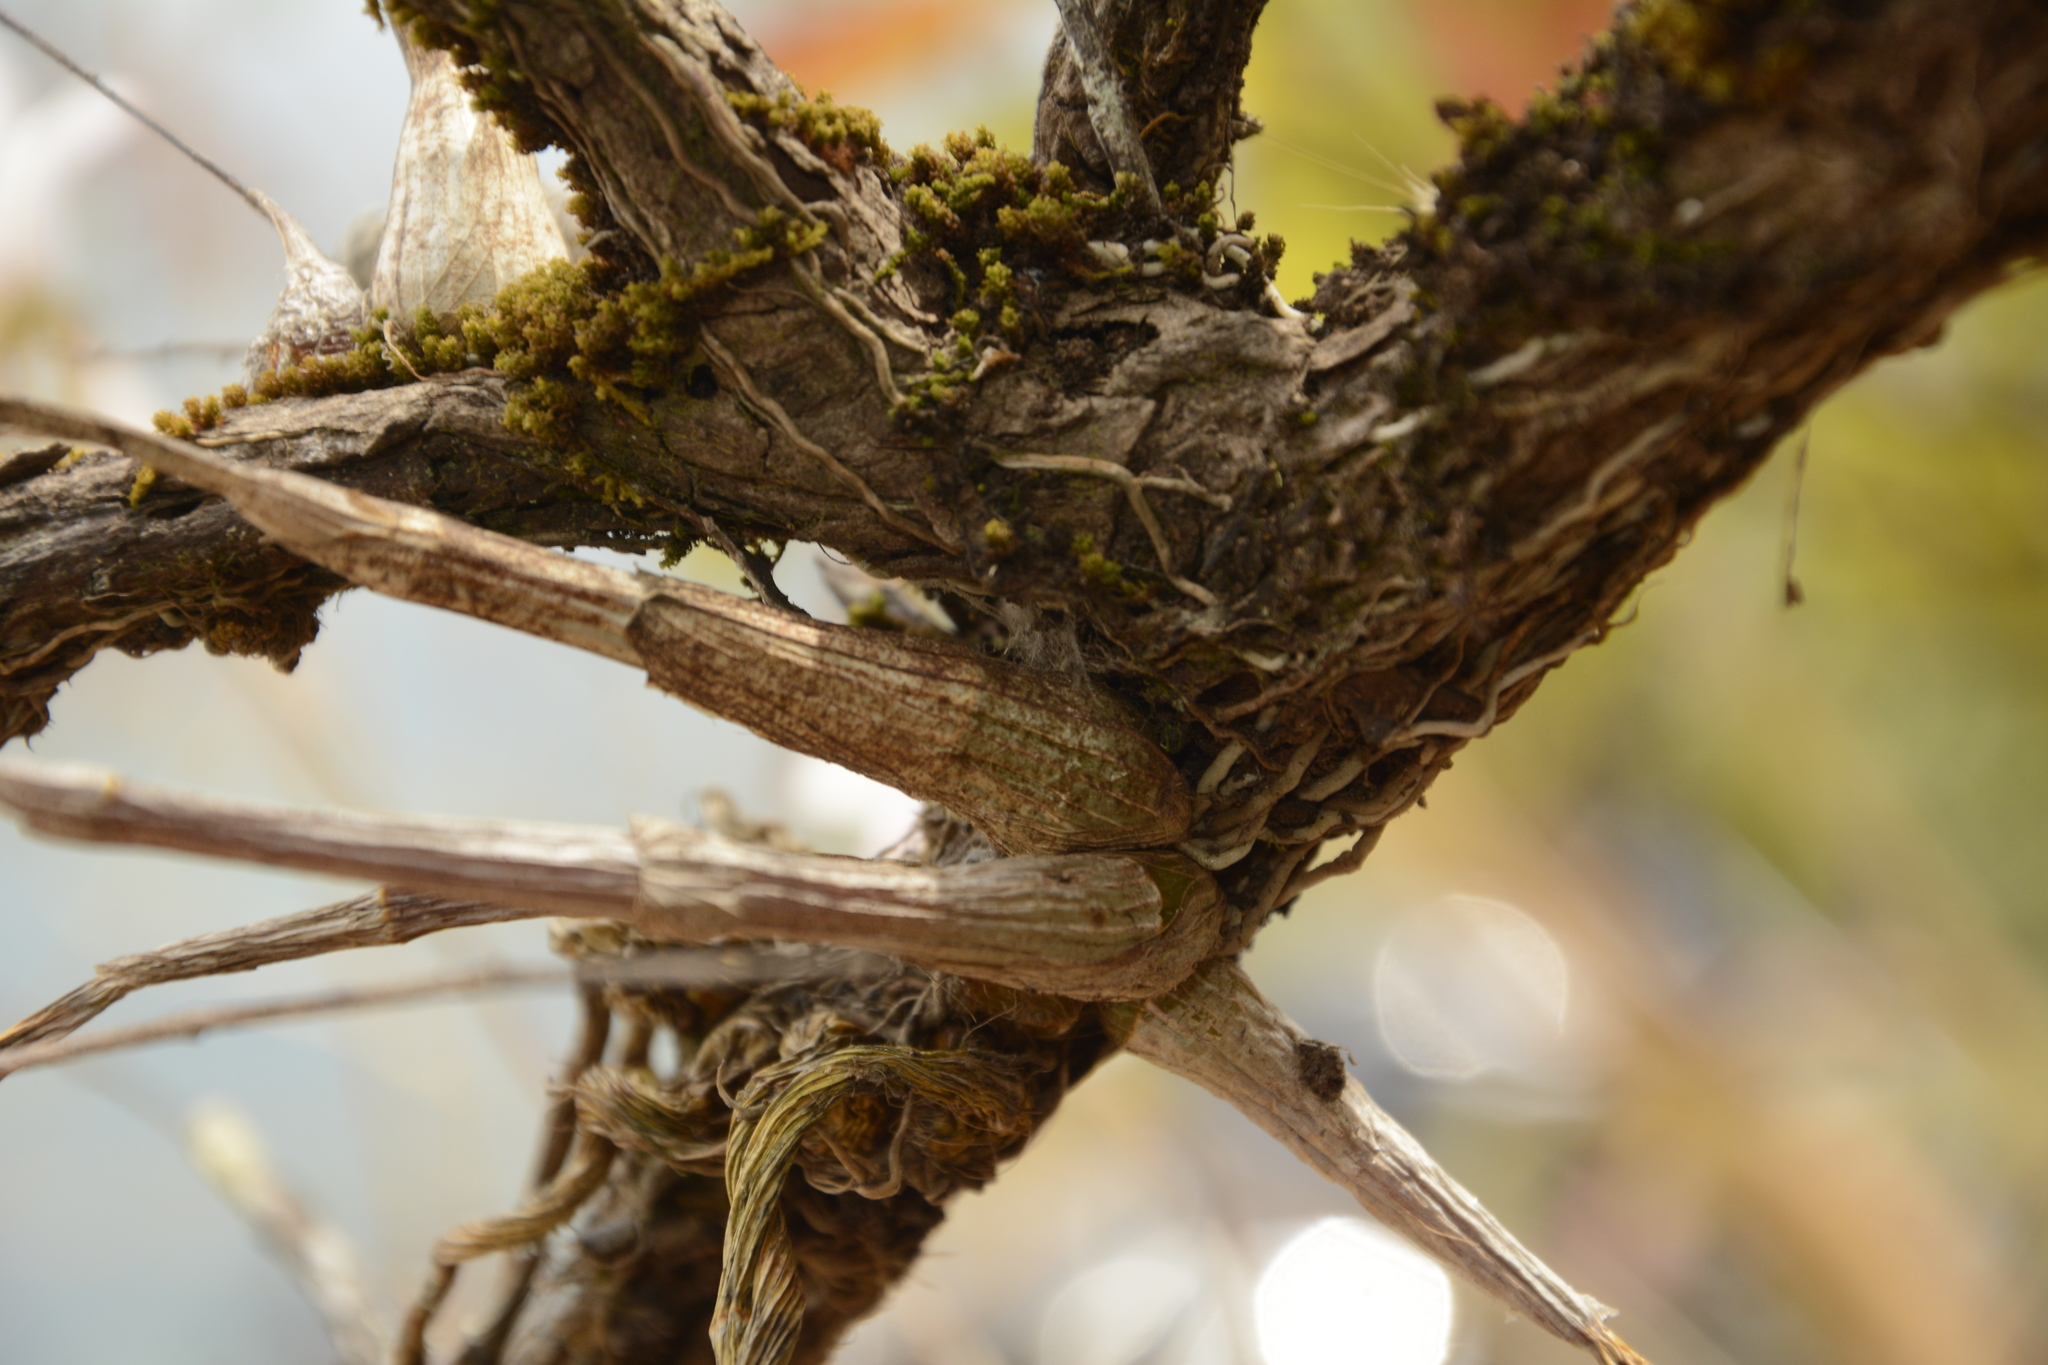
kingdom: Plantae
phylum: Tracheophyta
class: Liliopsida
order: Asparagales
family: Orchidaceae
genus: Dendrobium
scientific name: Dendrobium barbatulum
